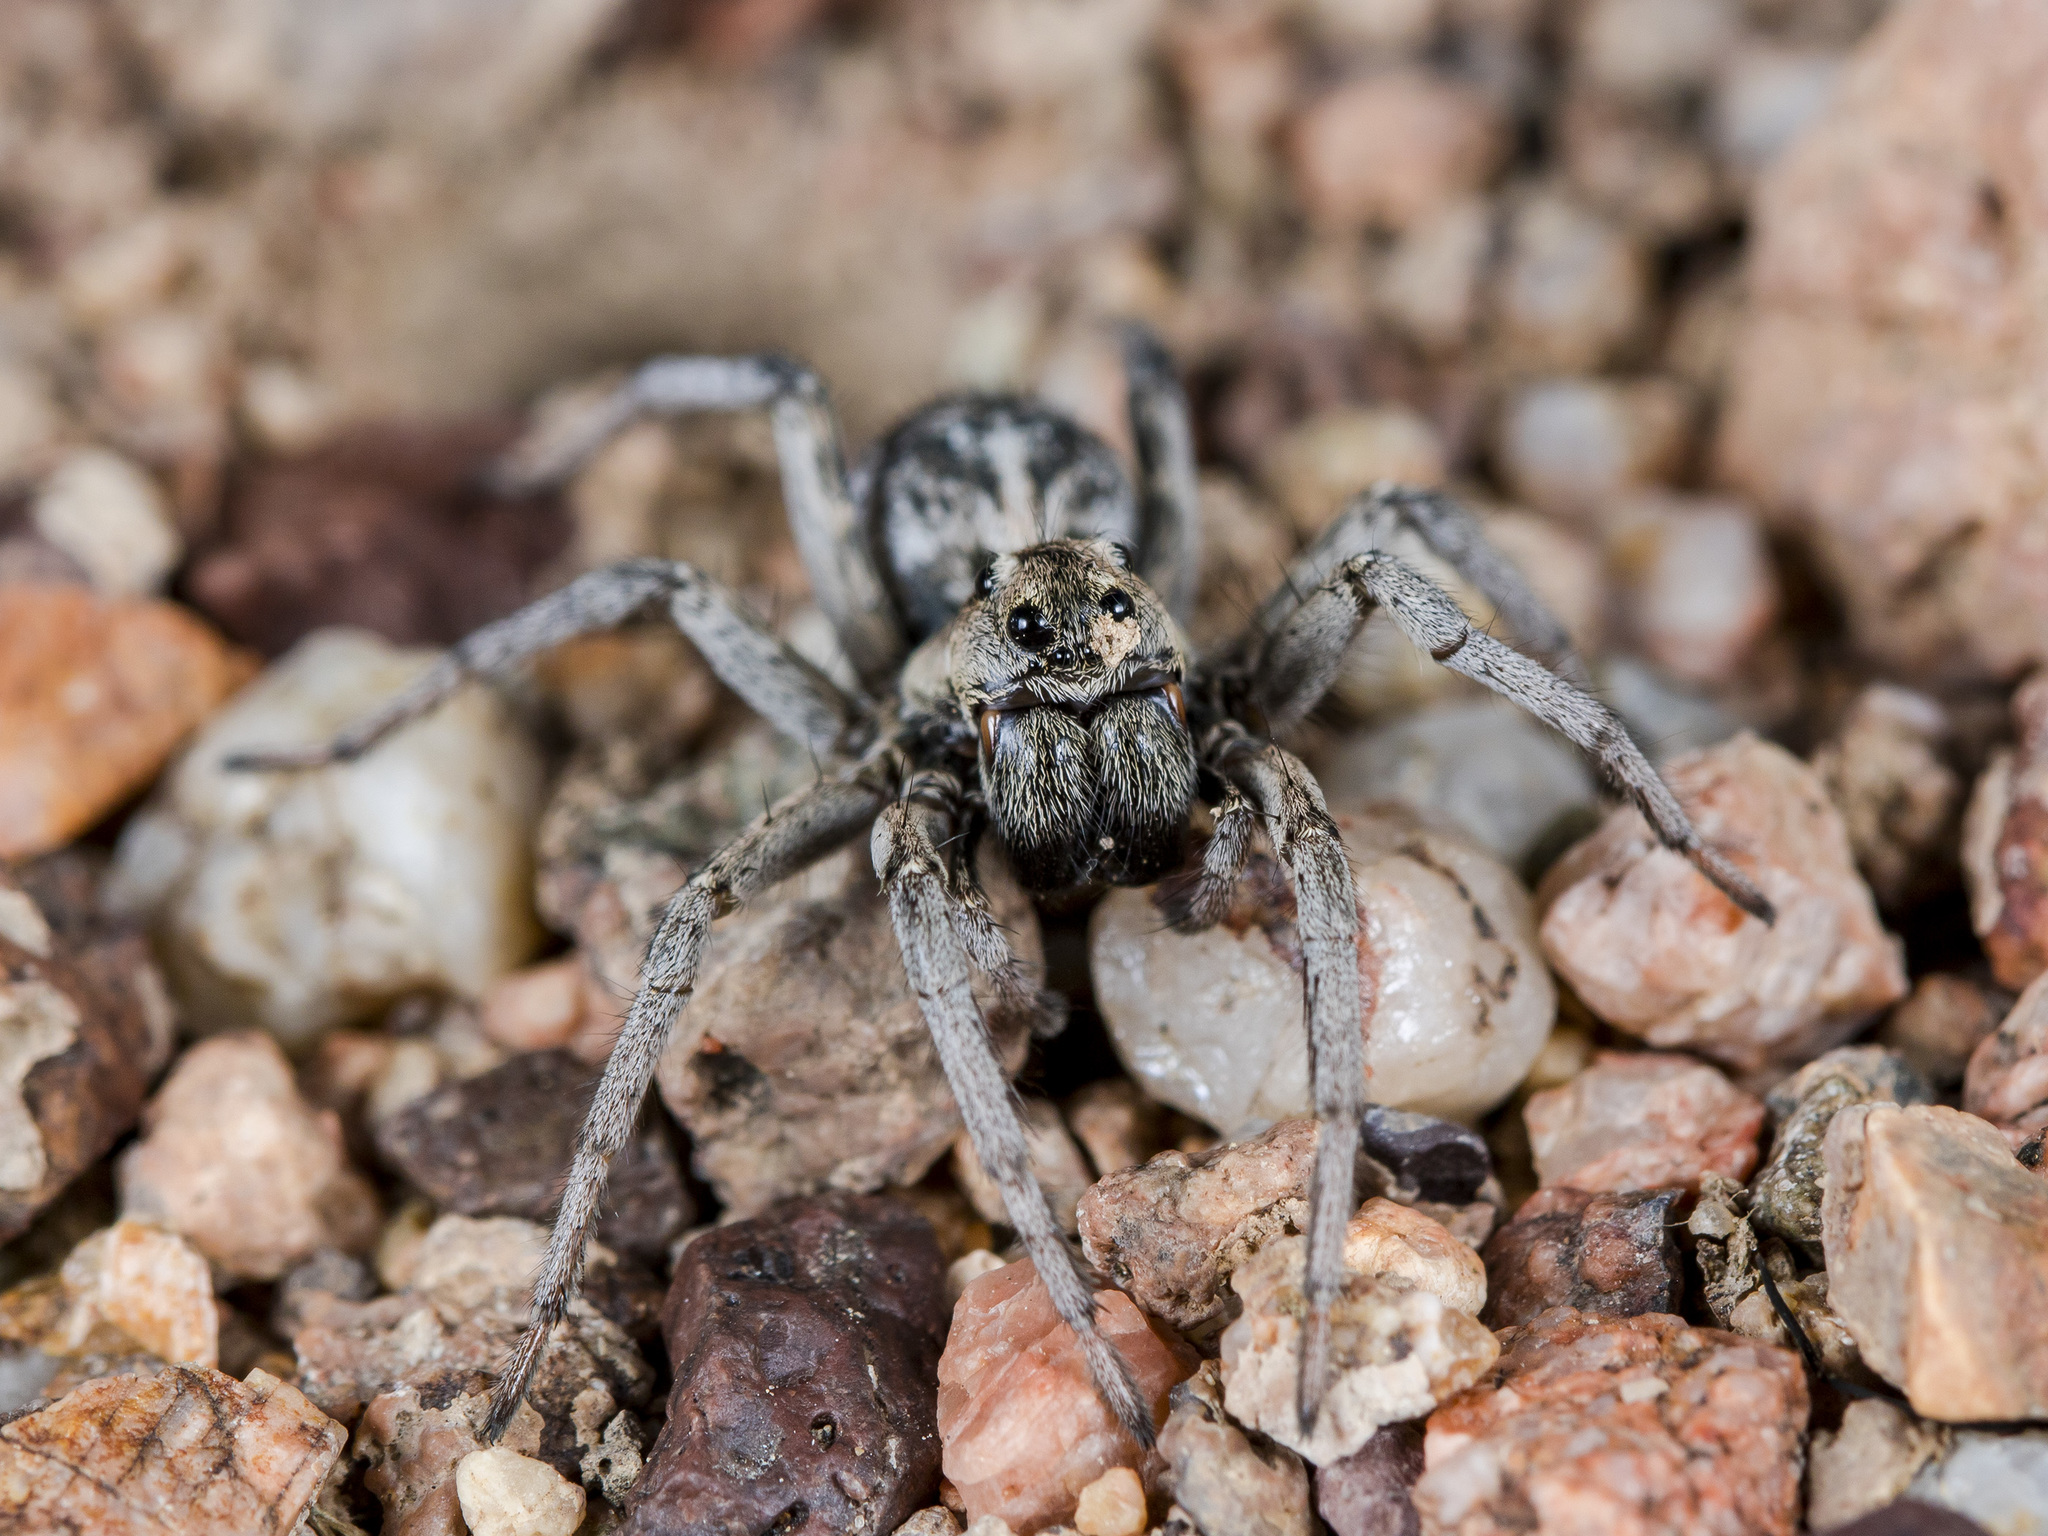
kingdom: Animalia
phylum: Arthropoda
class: Arachnida
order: Araneae
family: Lycosidae
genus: Alopecosa
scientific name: Alopecosa marikovskyi
